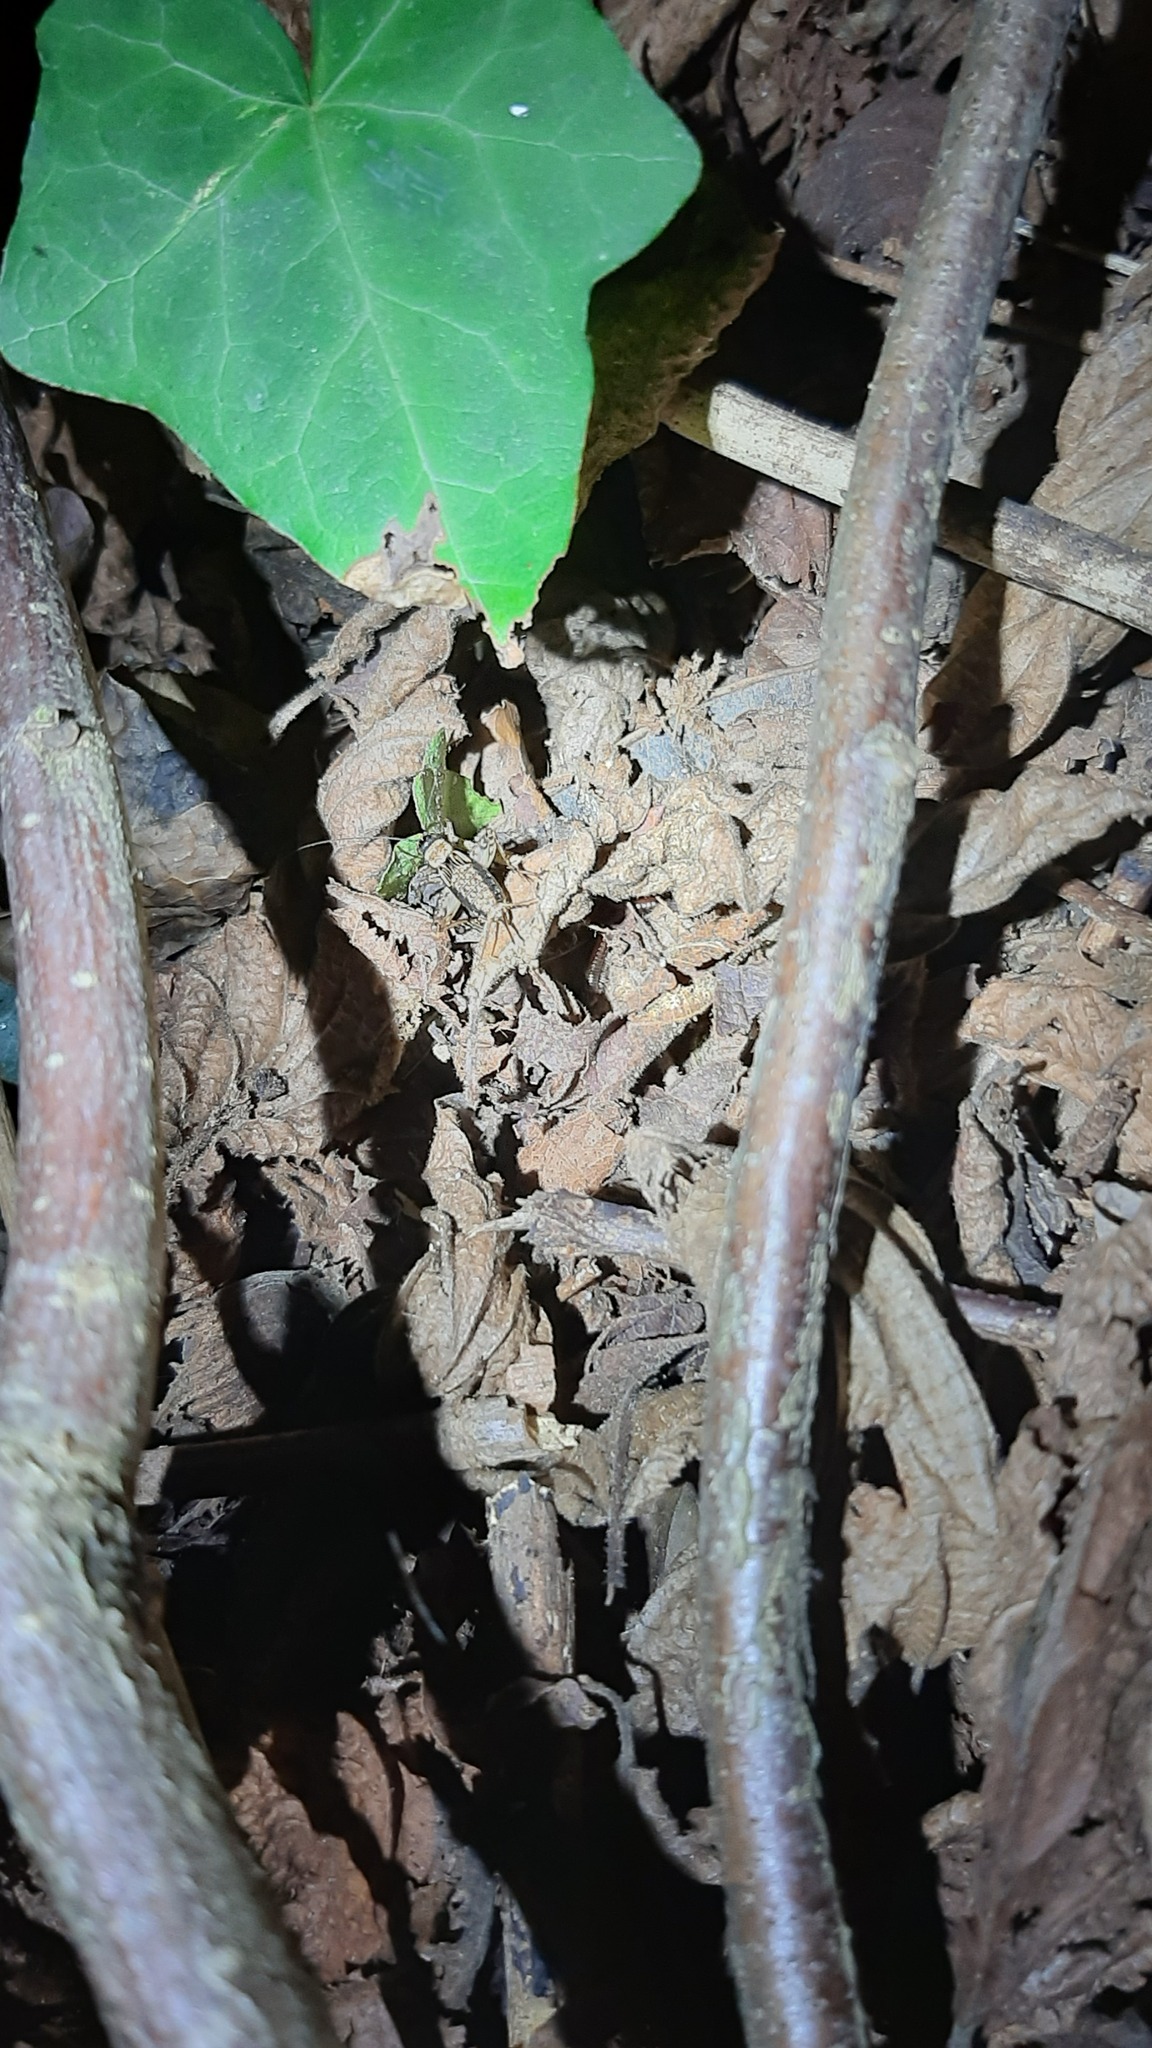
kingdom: Animalia
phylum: Arthropoda
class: Insecta
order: Orthoptera
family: Trigonidiidae
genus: Nemobius
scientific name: Nemobius sylvestris
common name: Wood-cricket
